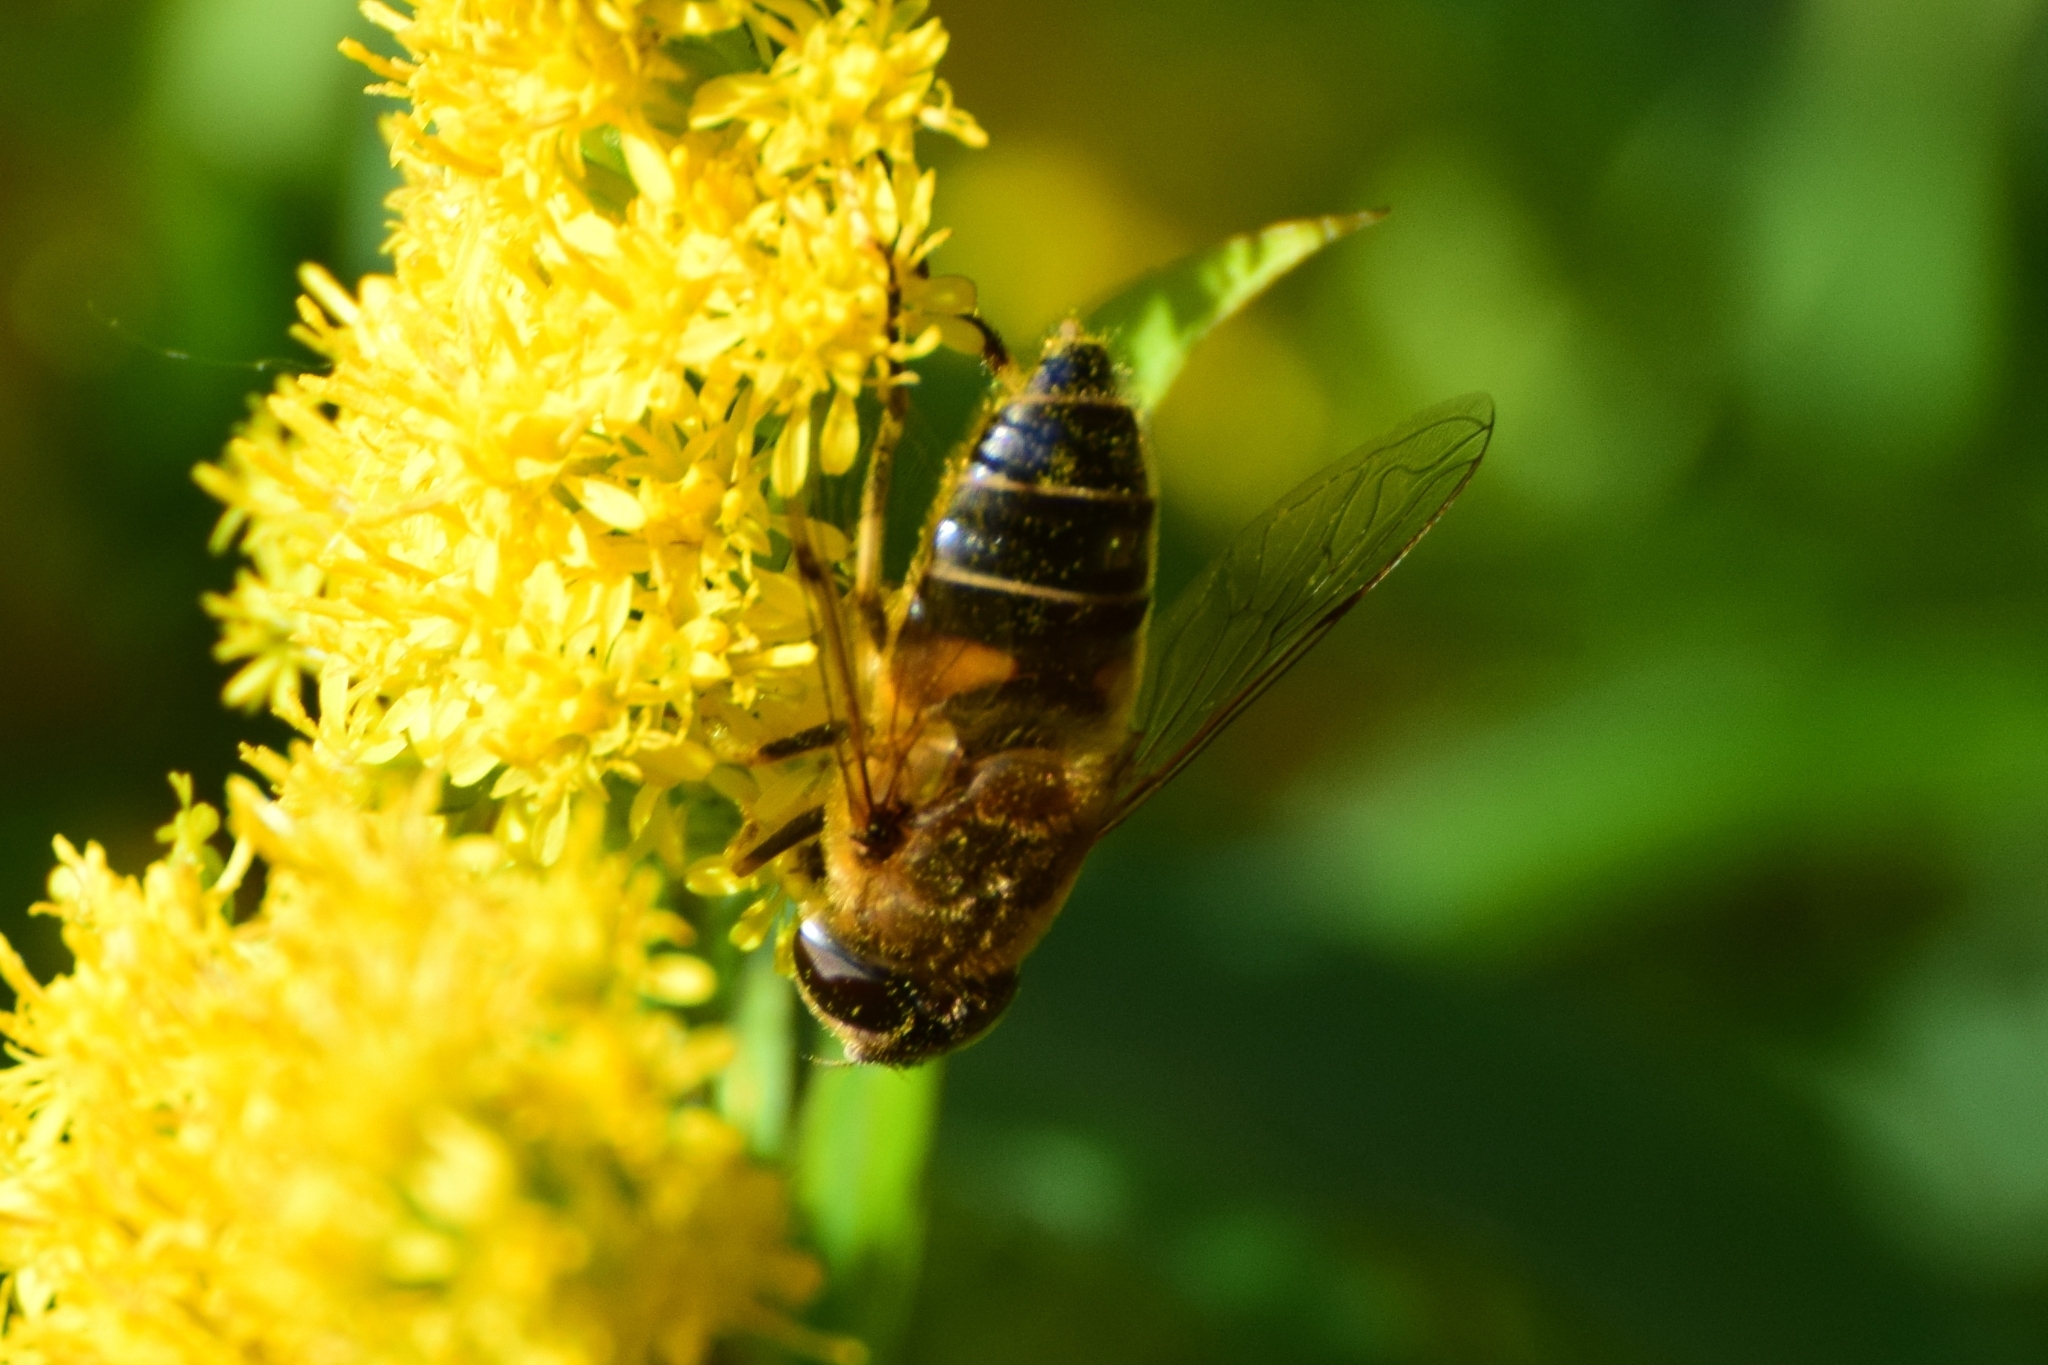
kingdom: Animalia
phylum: Arthropoda
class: Insecta
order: Diptera
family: Syrphidae
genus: Eristalis
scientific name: Eristalis pertinax
